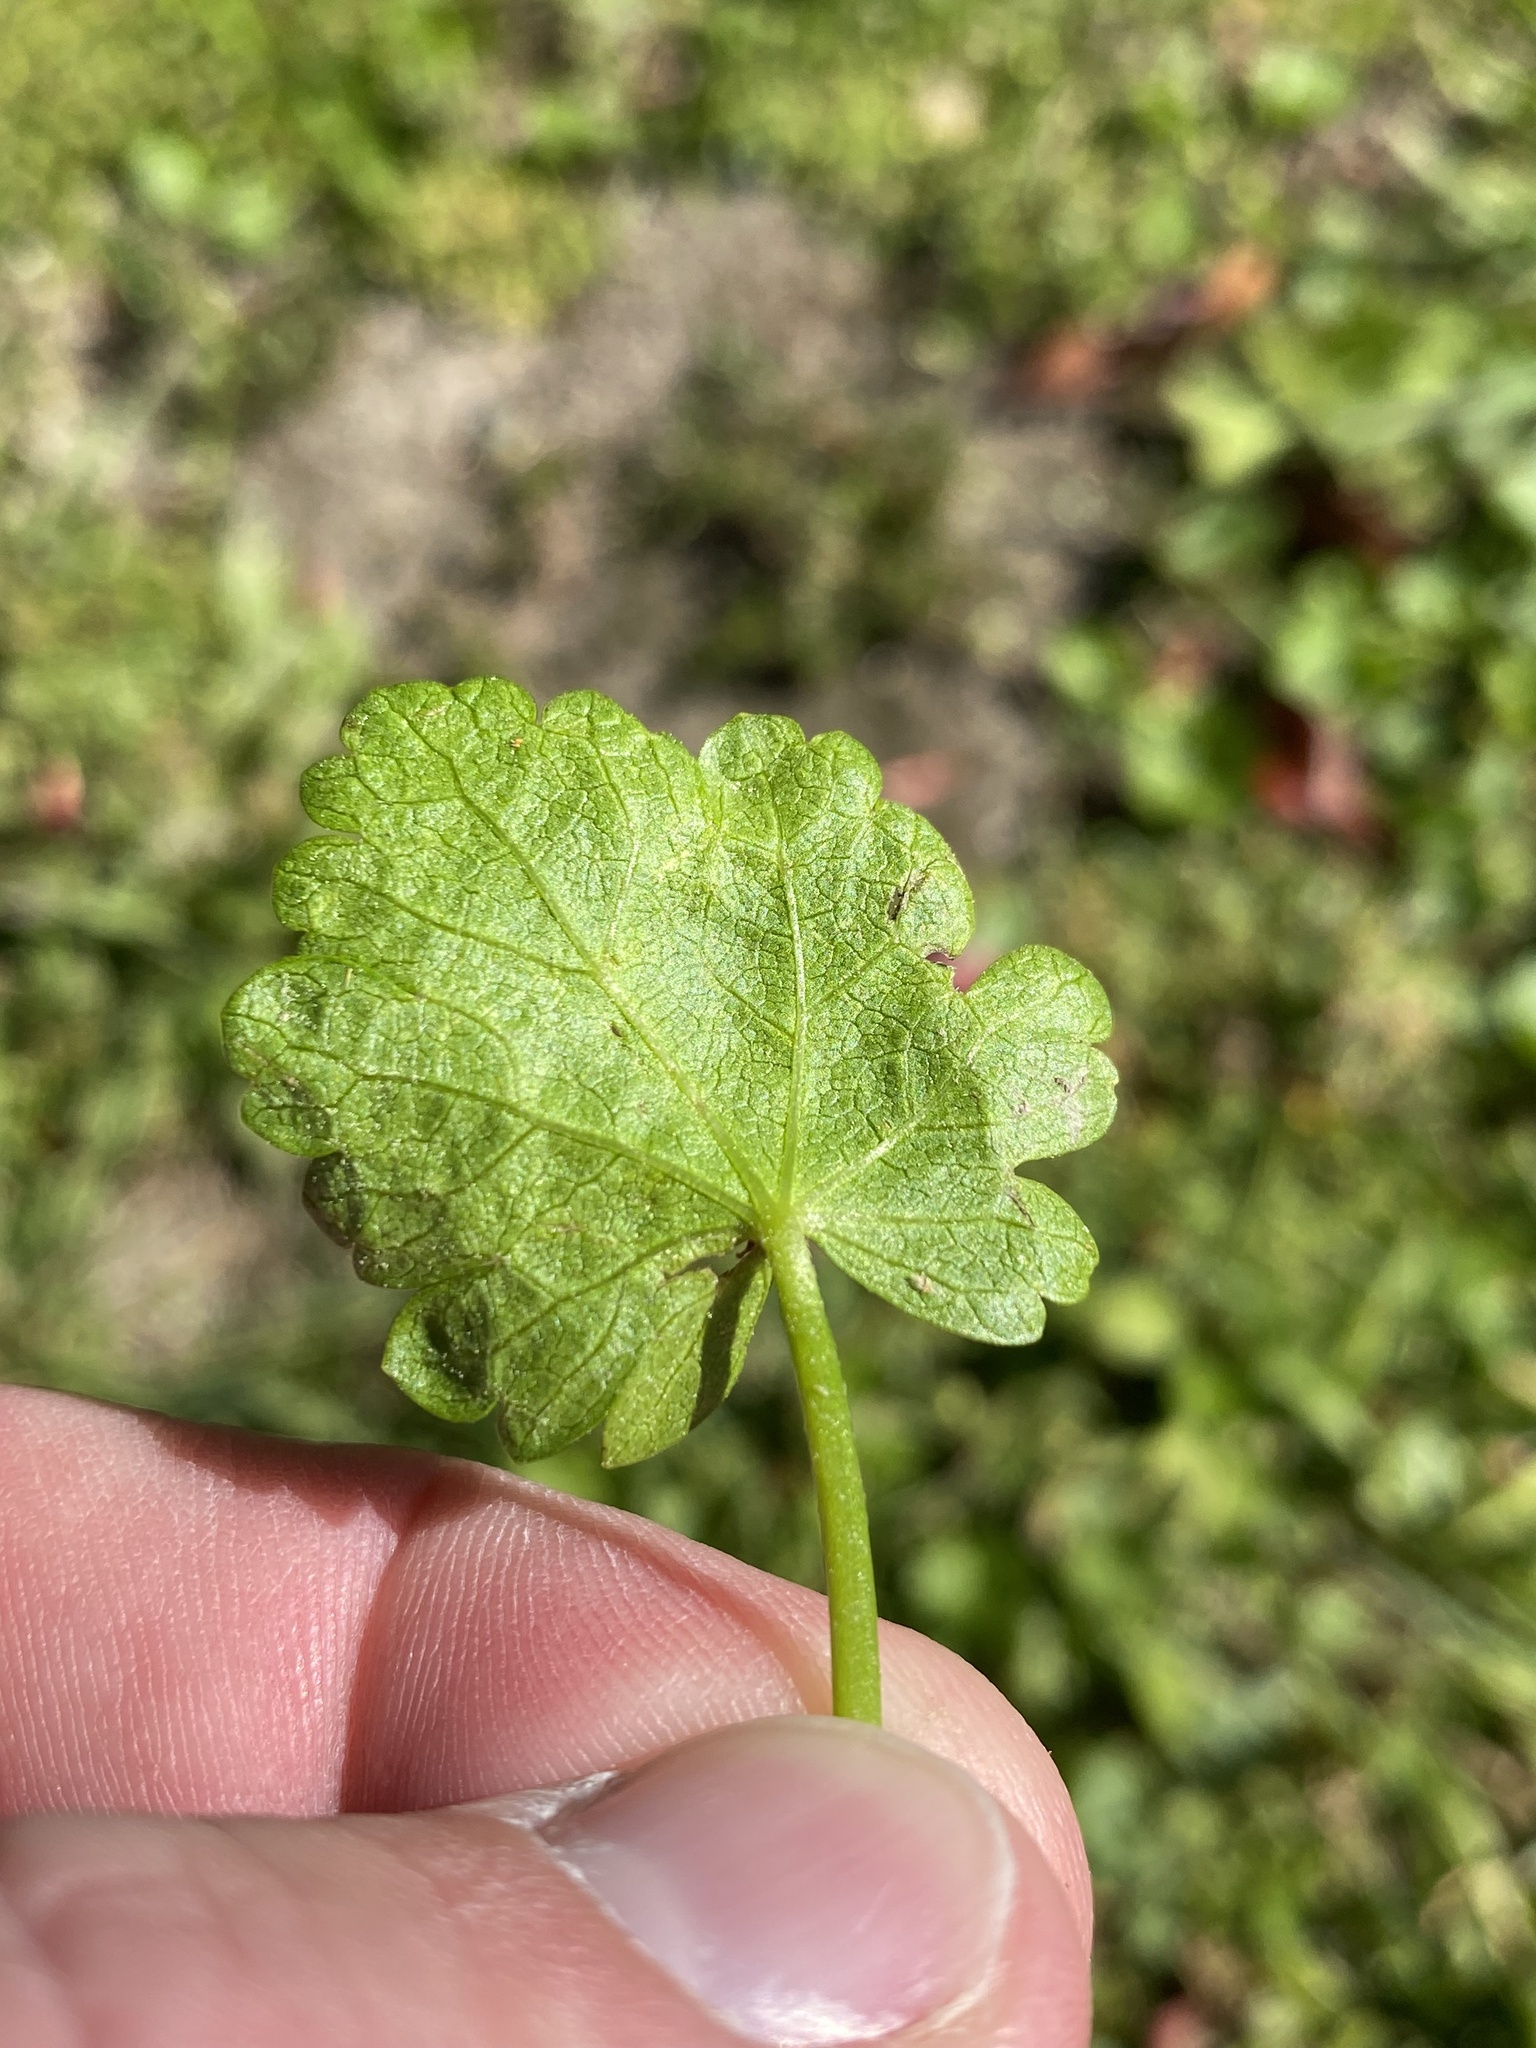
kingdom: Plantae
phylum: Tracheophyta
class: Magnoliopsida
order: Malvales
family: Malvaceae
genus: Modiola
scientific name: Modiola caroliniana
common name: Carolina bristlemallow
